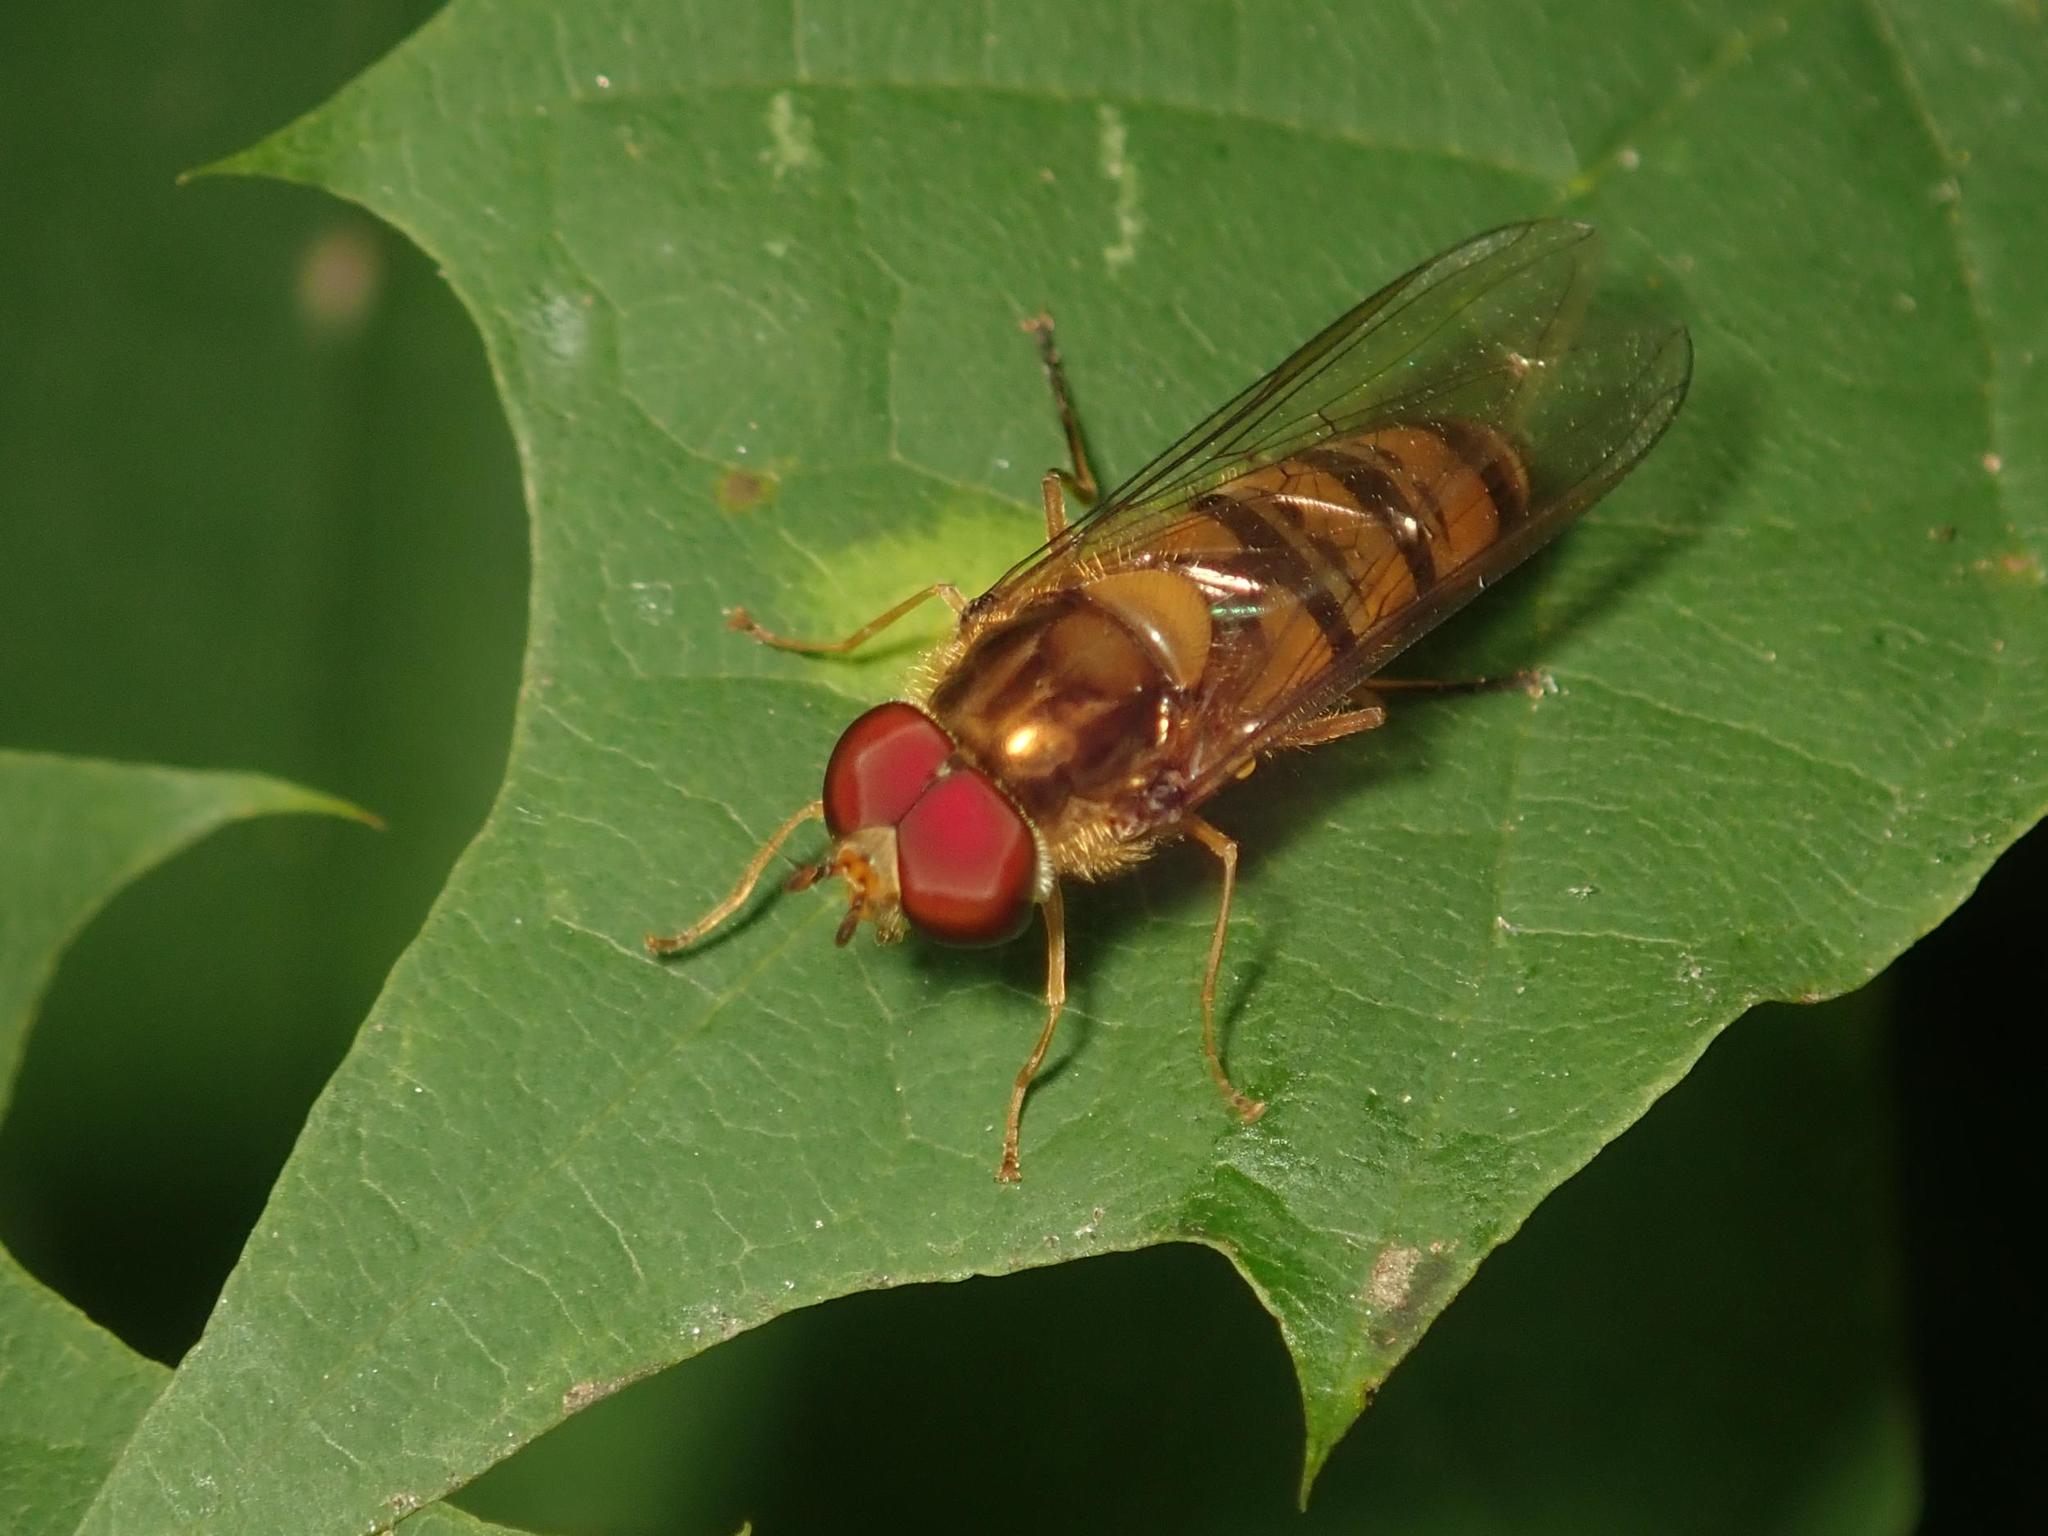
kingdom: Animalia
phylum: Arthropoda
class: Insecta
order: Diptera
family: Syrphidae
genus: Episyrphus
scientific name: Episyrphus balteatus
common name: Marmalade hoverfly
